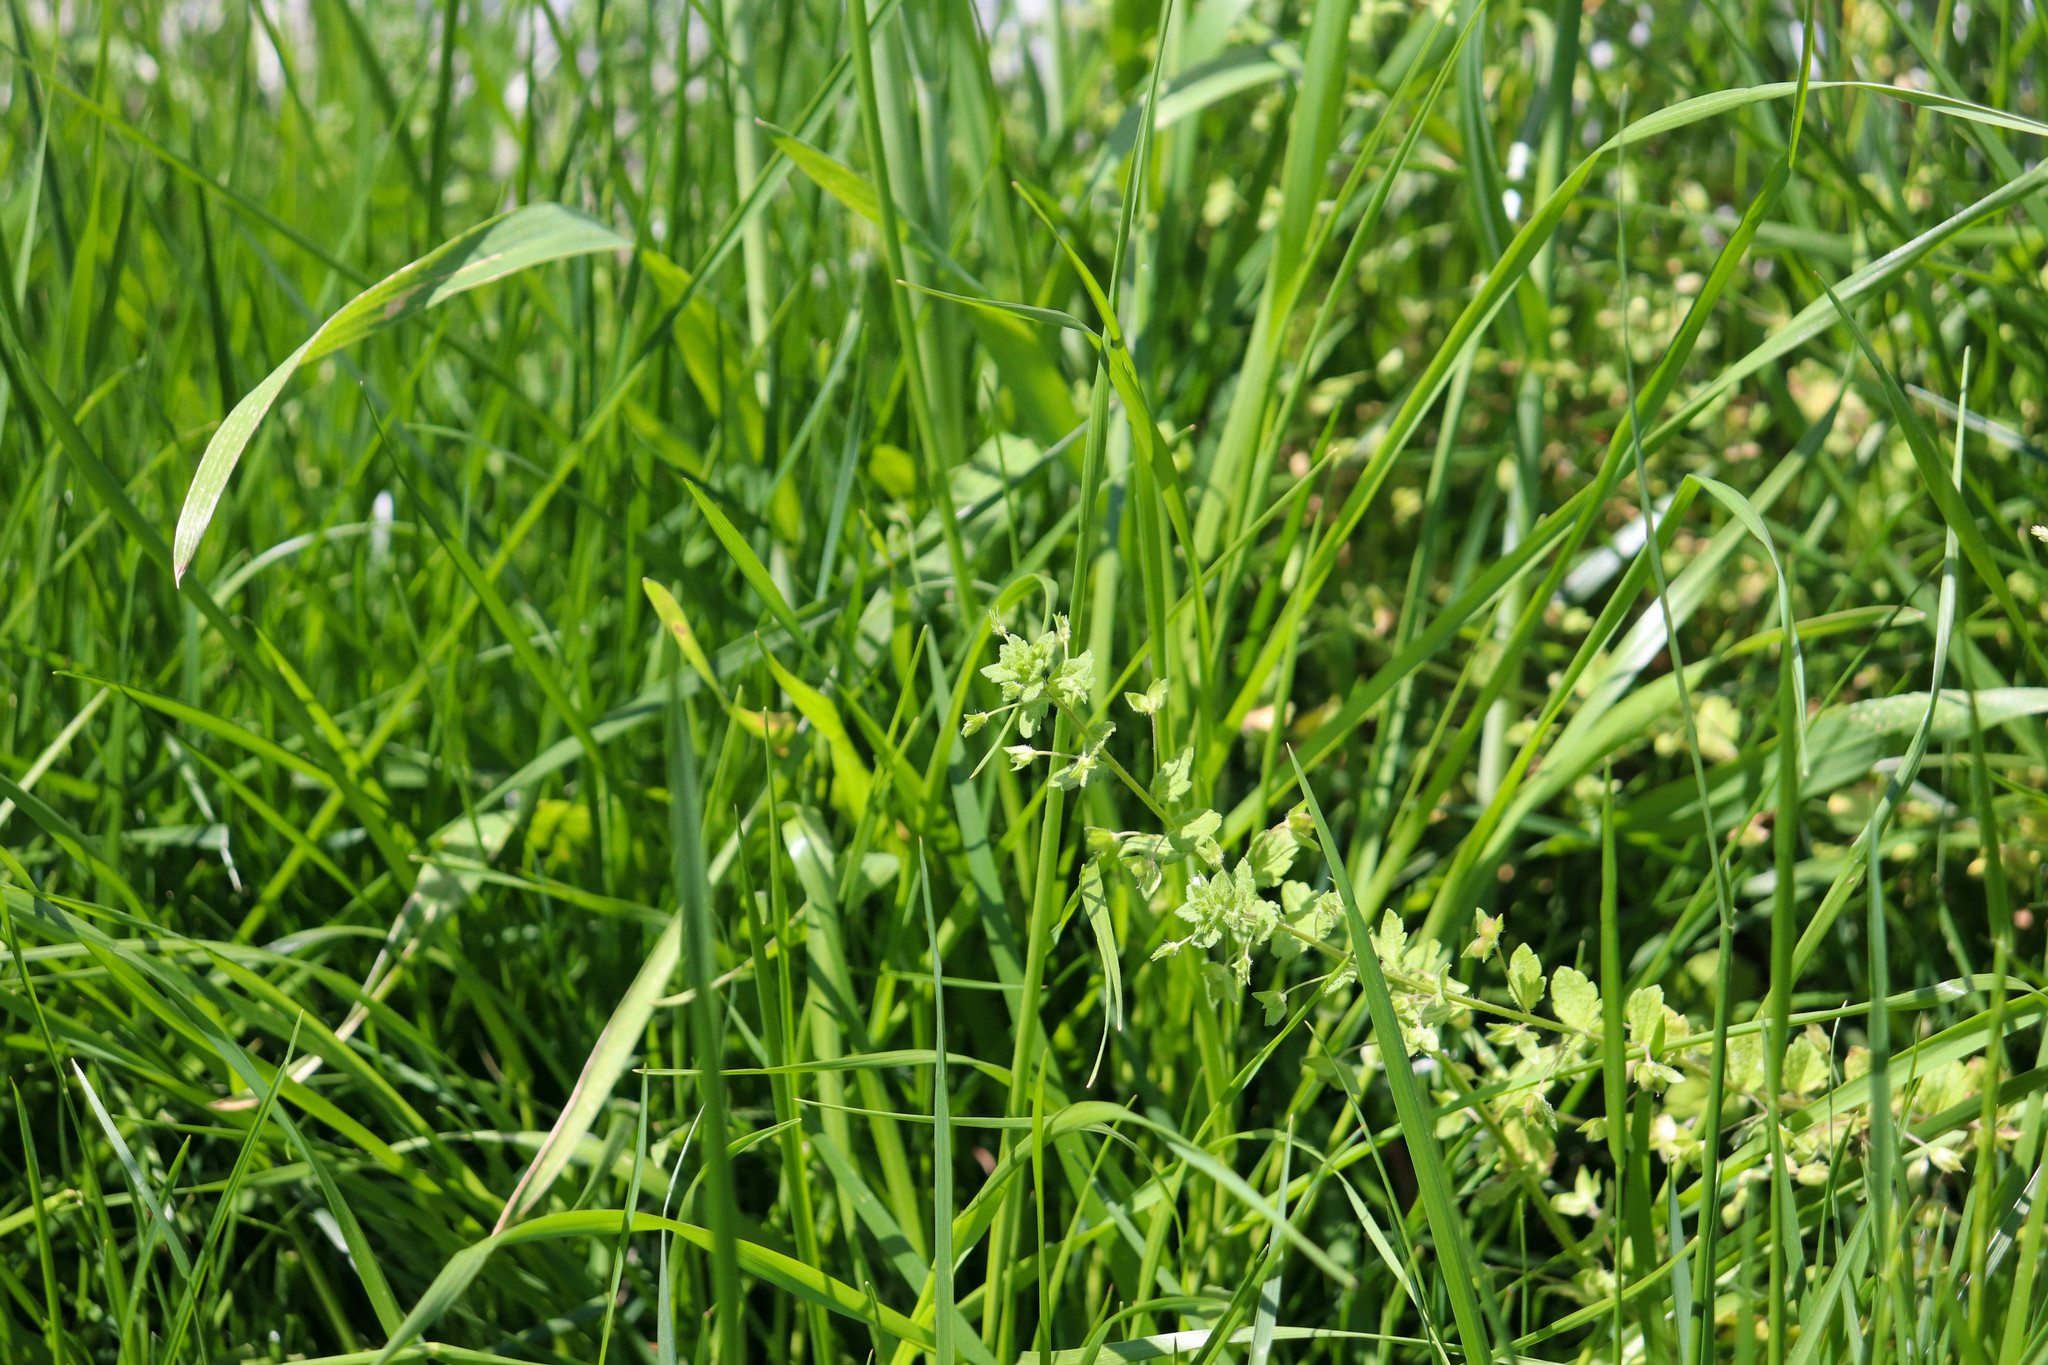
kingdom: Plantae
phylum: Tracheophyta
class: Magnoliopsida
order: Lamiales
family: Plantaginaceae
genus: Veronica
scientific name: Veronica persica
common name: Common field-speedwell
